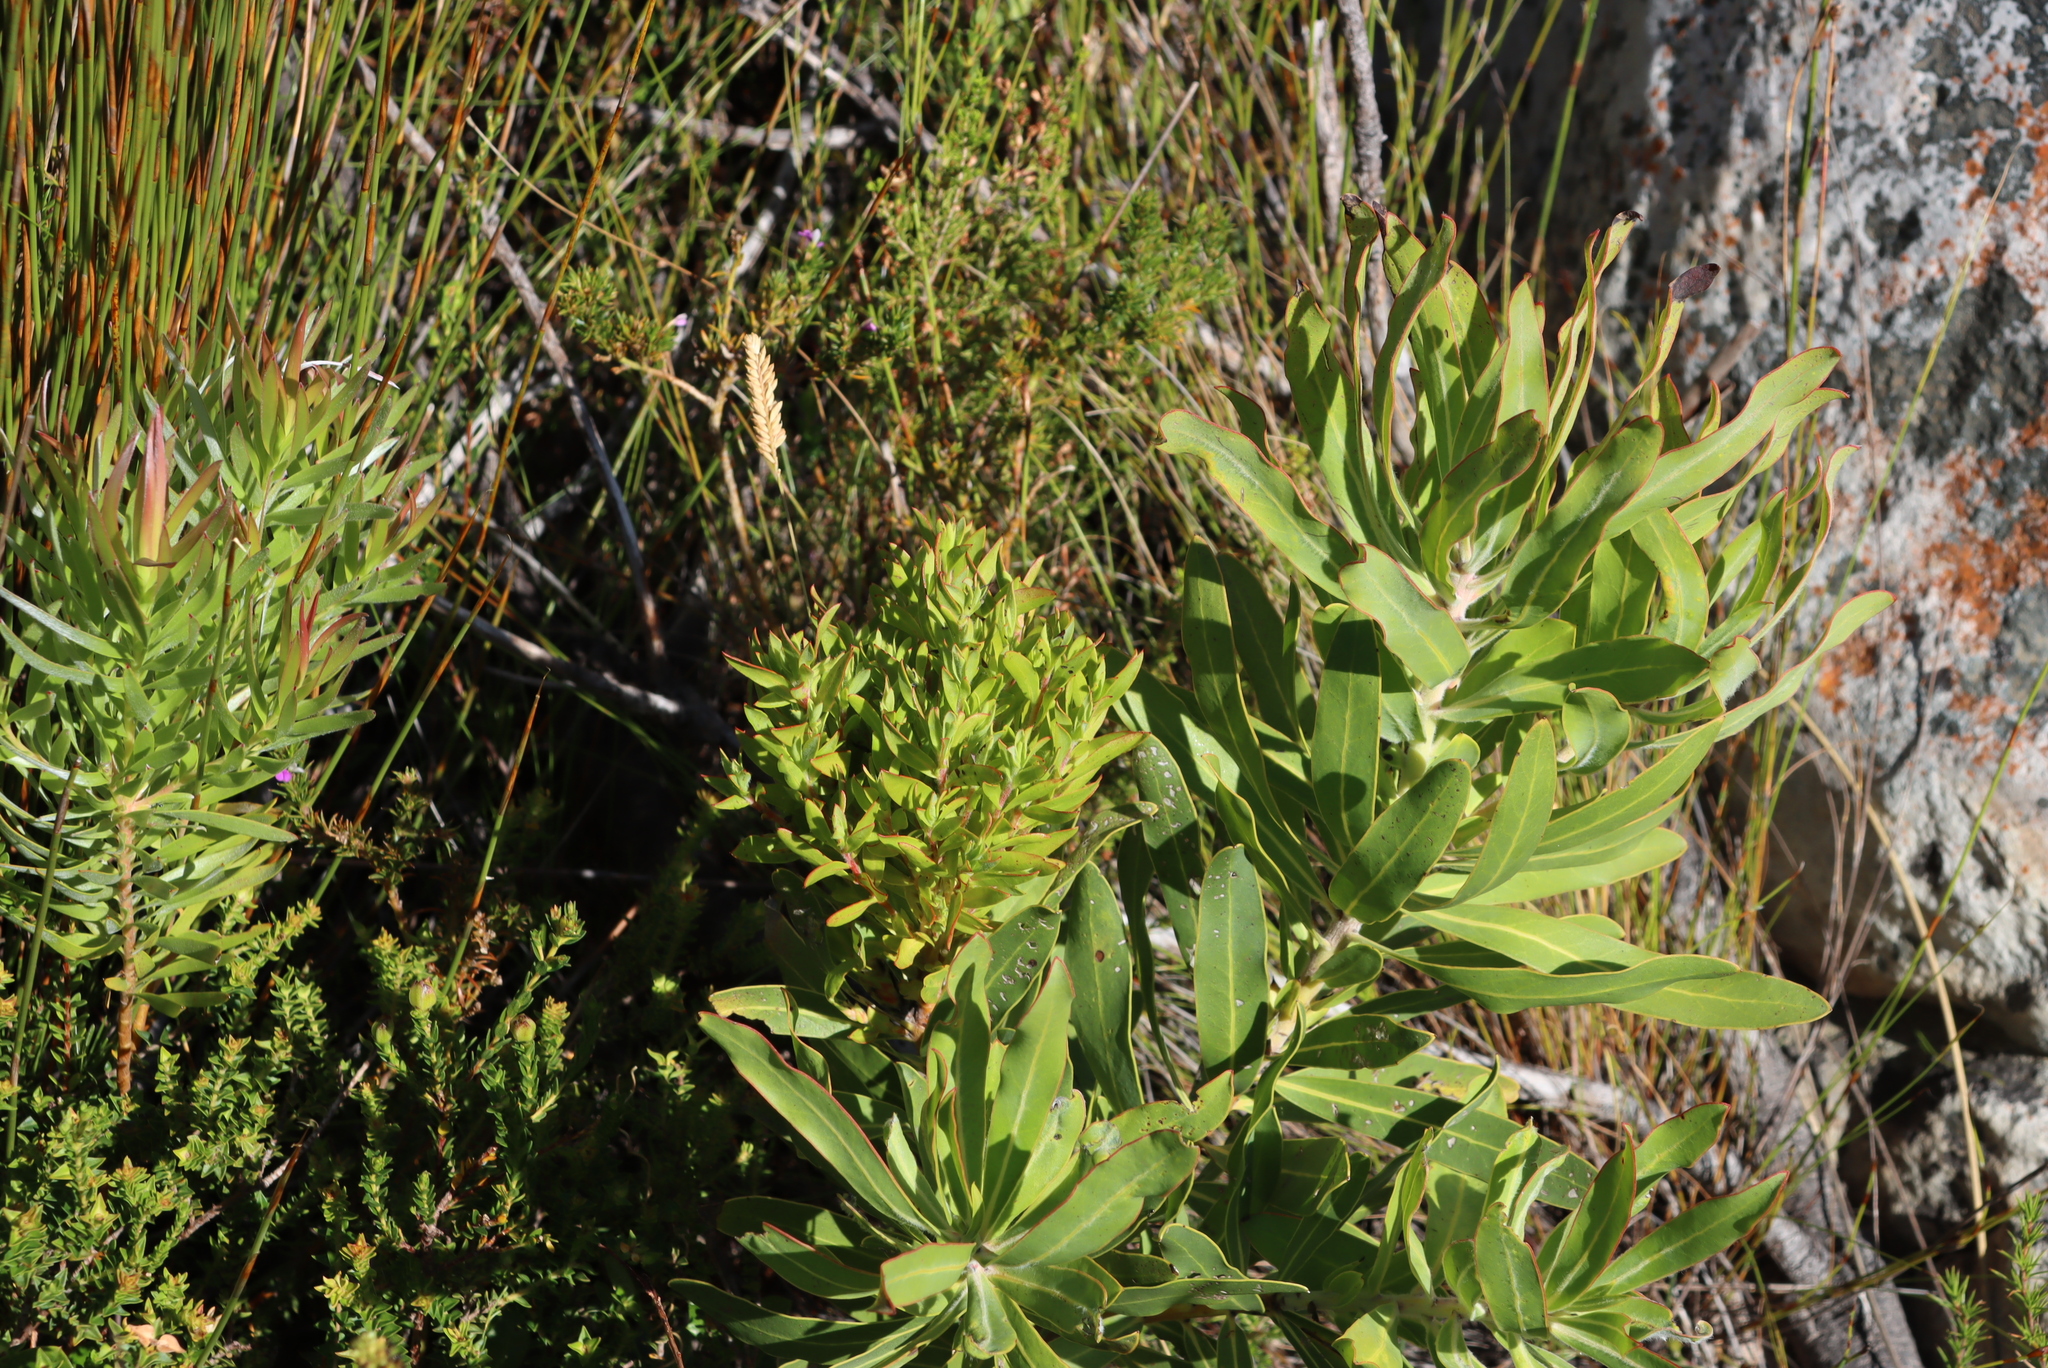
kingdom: Plantae
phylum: Tracheophyta
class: Magnoliopsida
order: Proteales
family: Proteaceae
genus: Protea
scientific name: Protea laurifolia
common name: Grey-leaf sugarbsh
